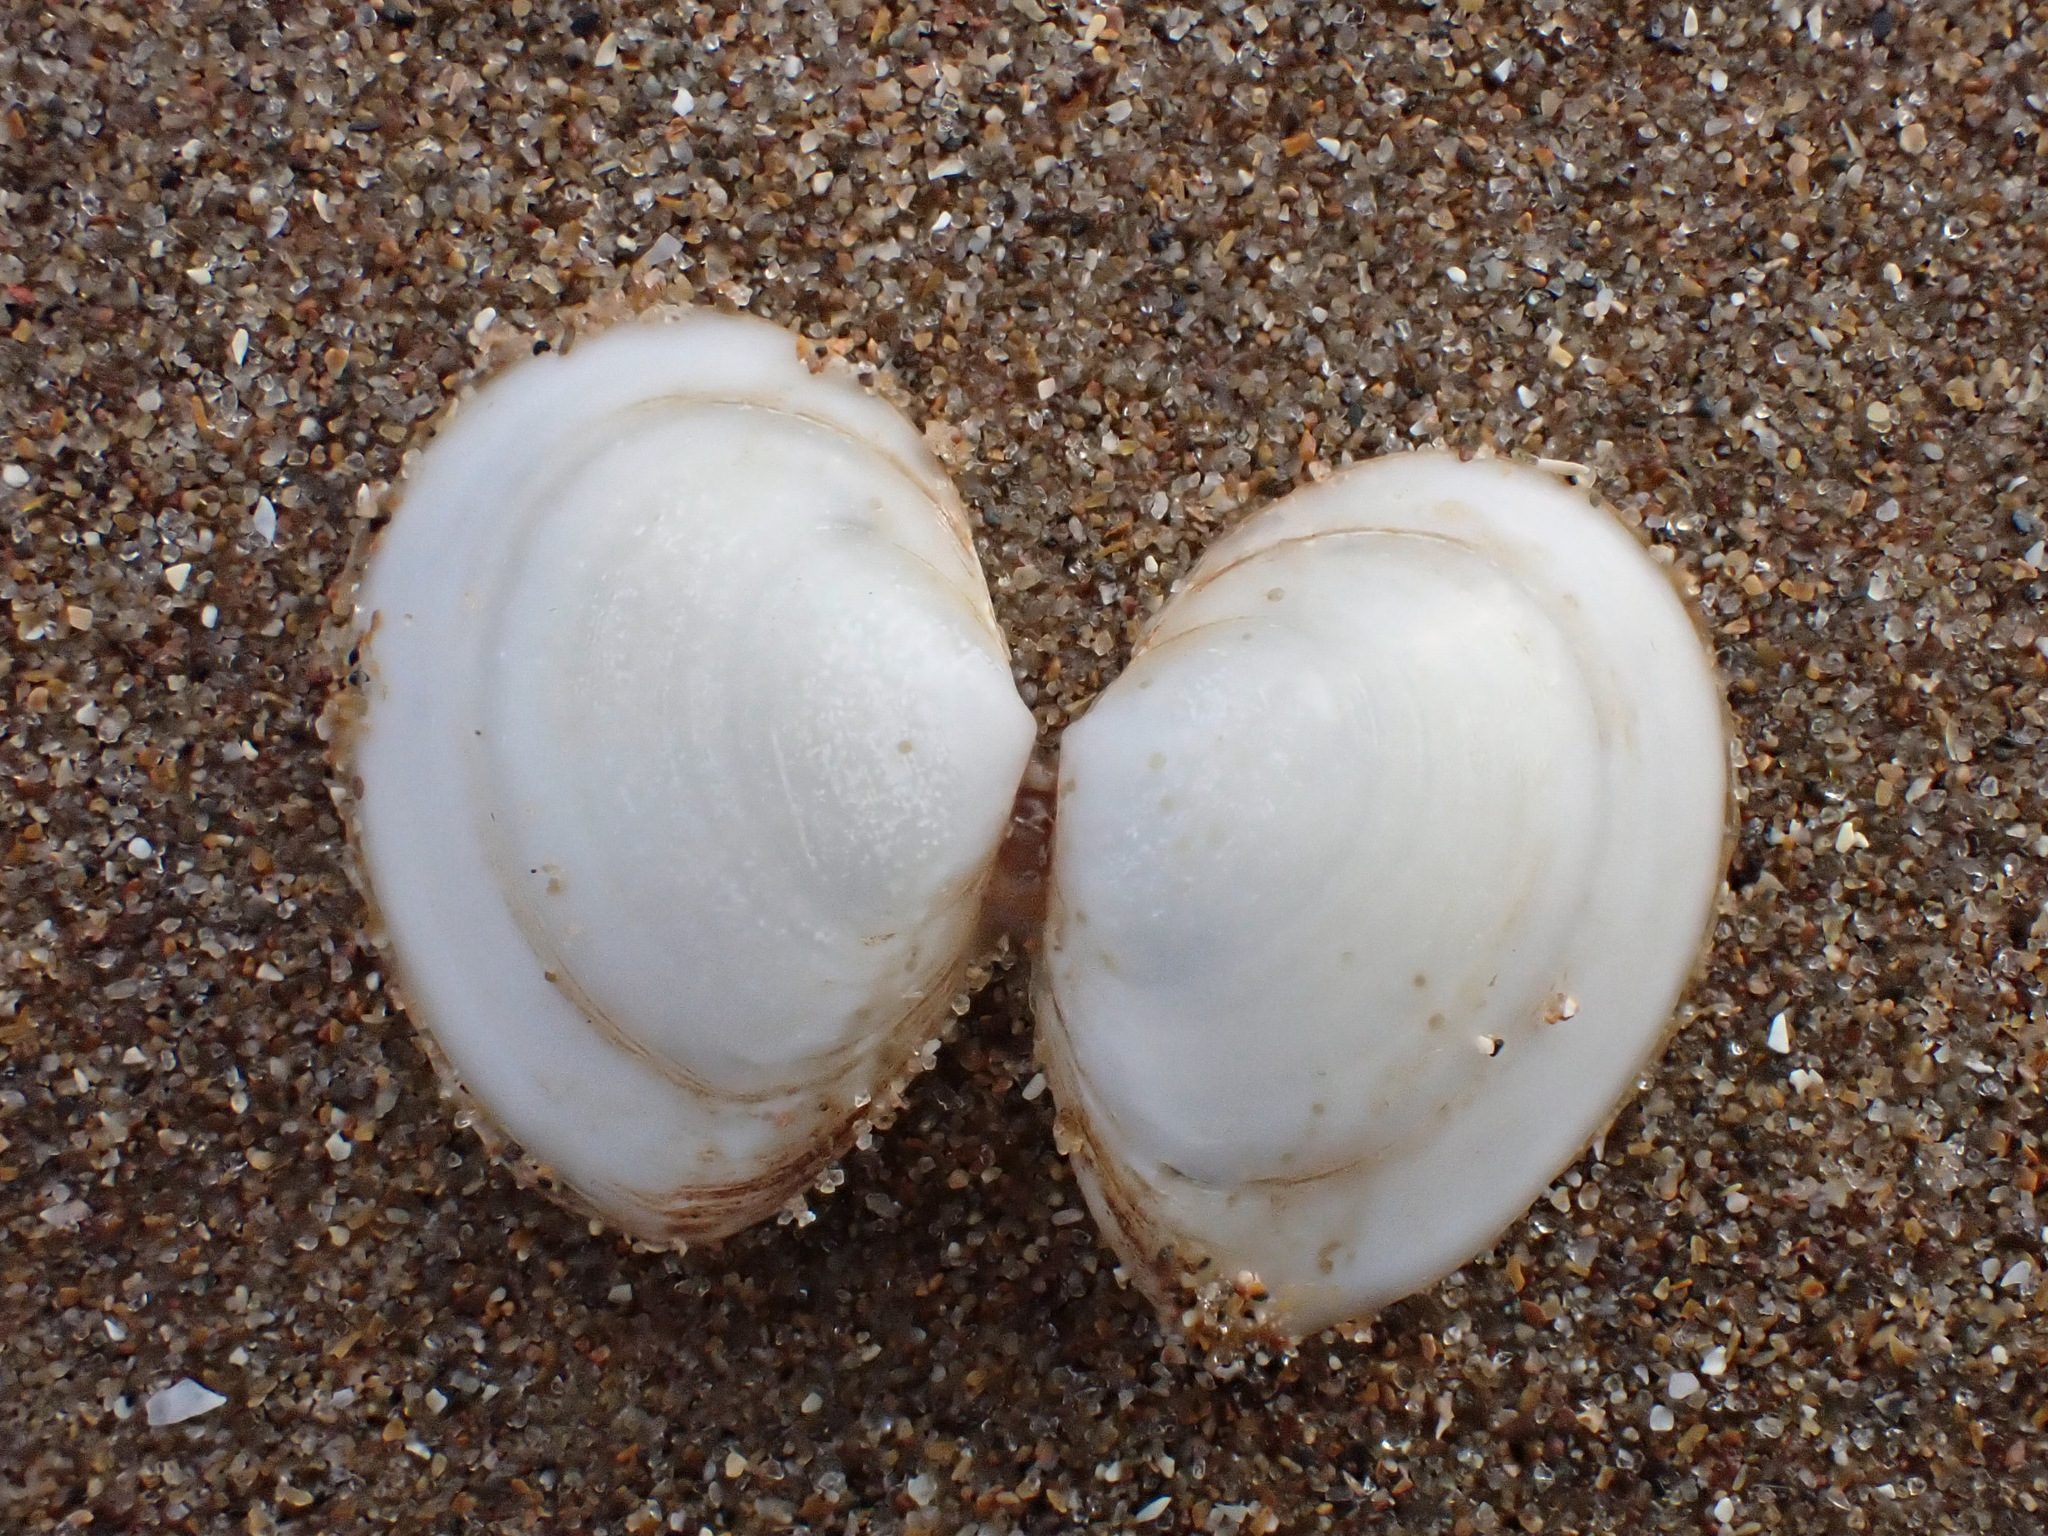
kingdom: Animalia
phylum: Mollusca
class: Bivalvia
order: Cardiida
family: Tellinidae
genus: Macoma
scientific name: Macoma balthica
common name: Baltic tellin
